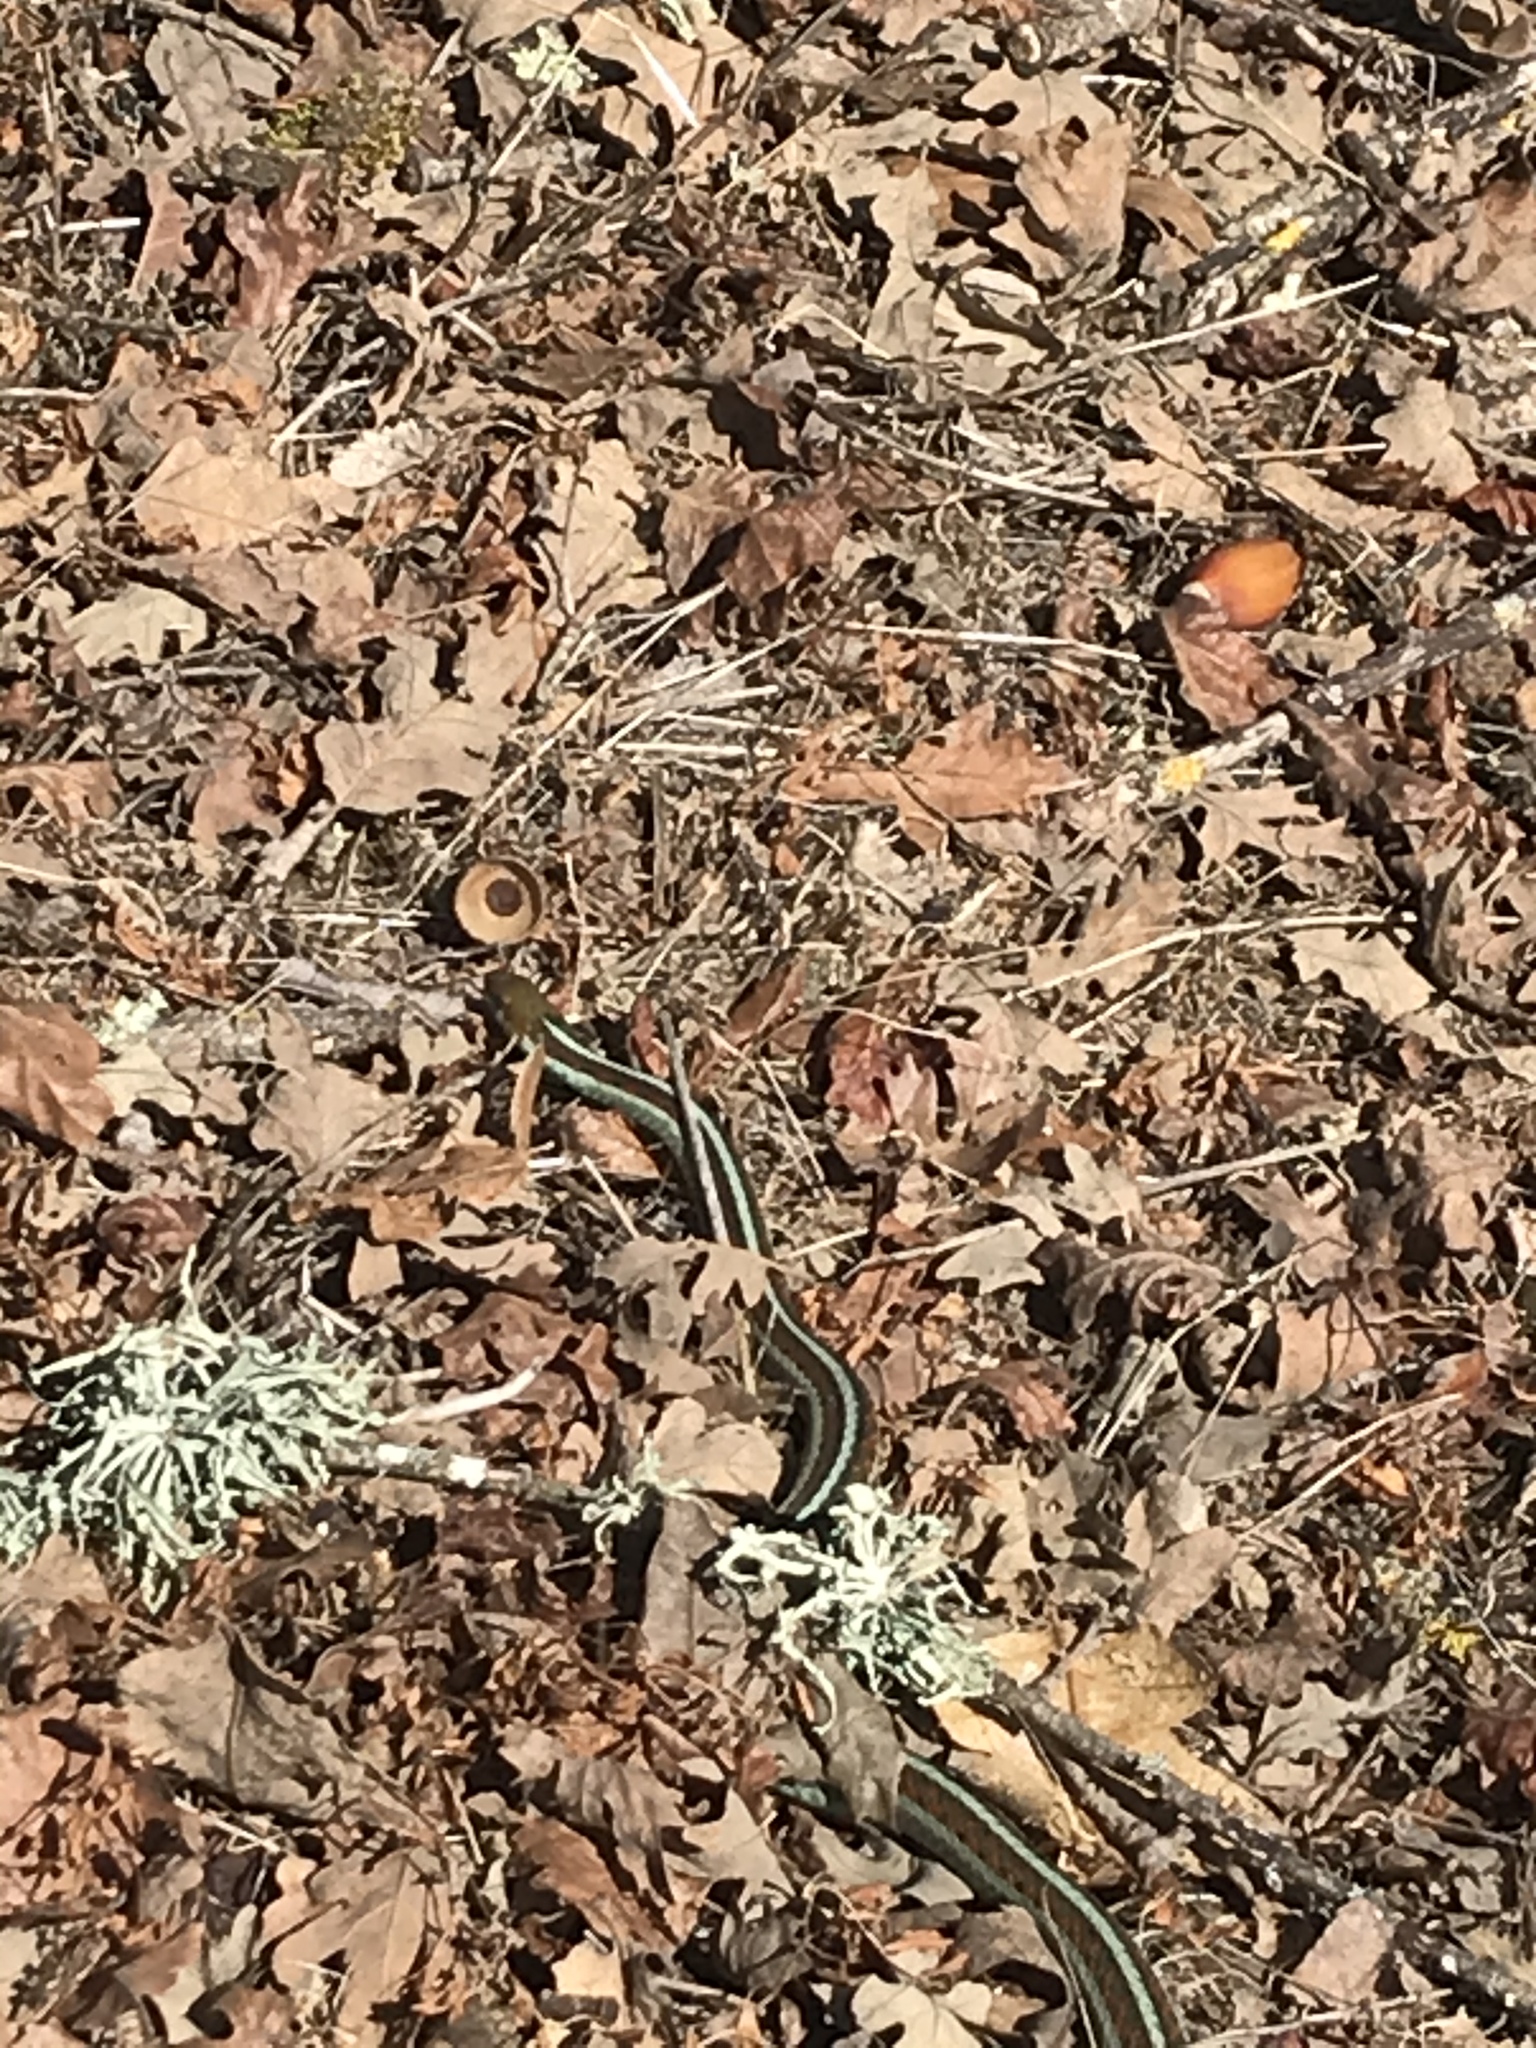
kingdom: Animalia
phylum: Chordata
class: Squamata
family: Colubridae
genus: Thamnophis
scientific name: Thamnophis sirtalis
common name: Common garter snake
